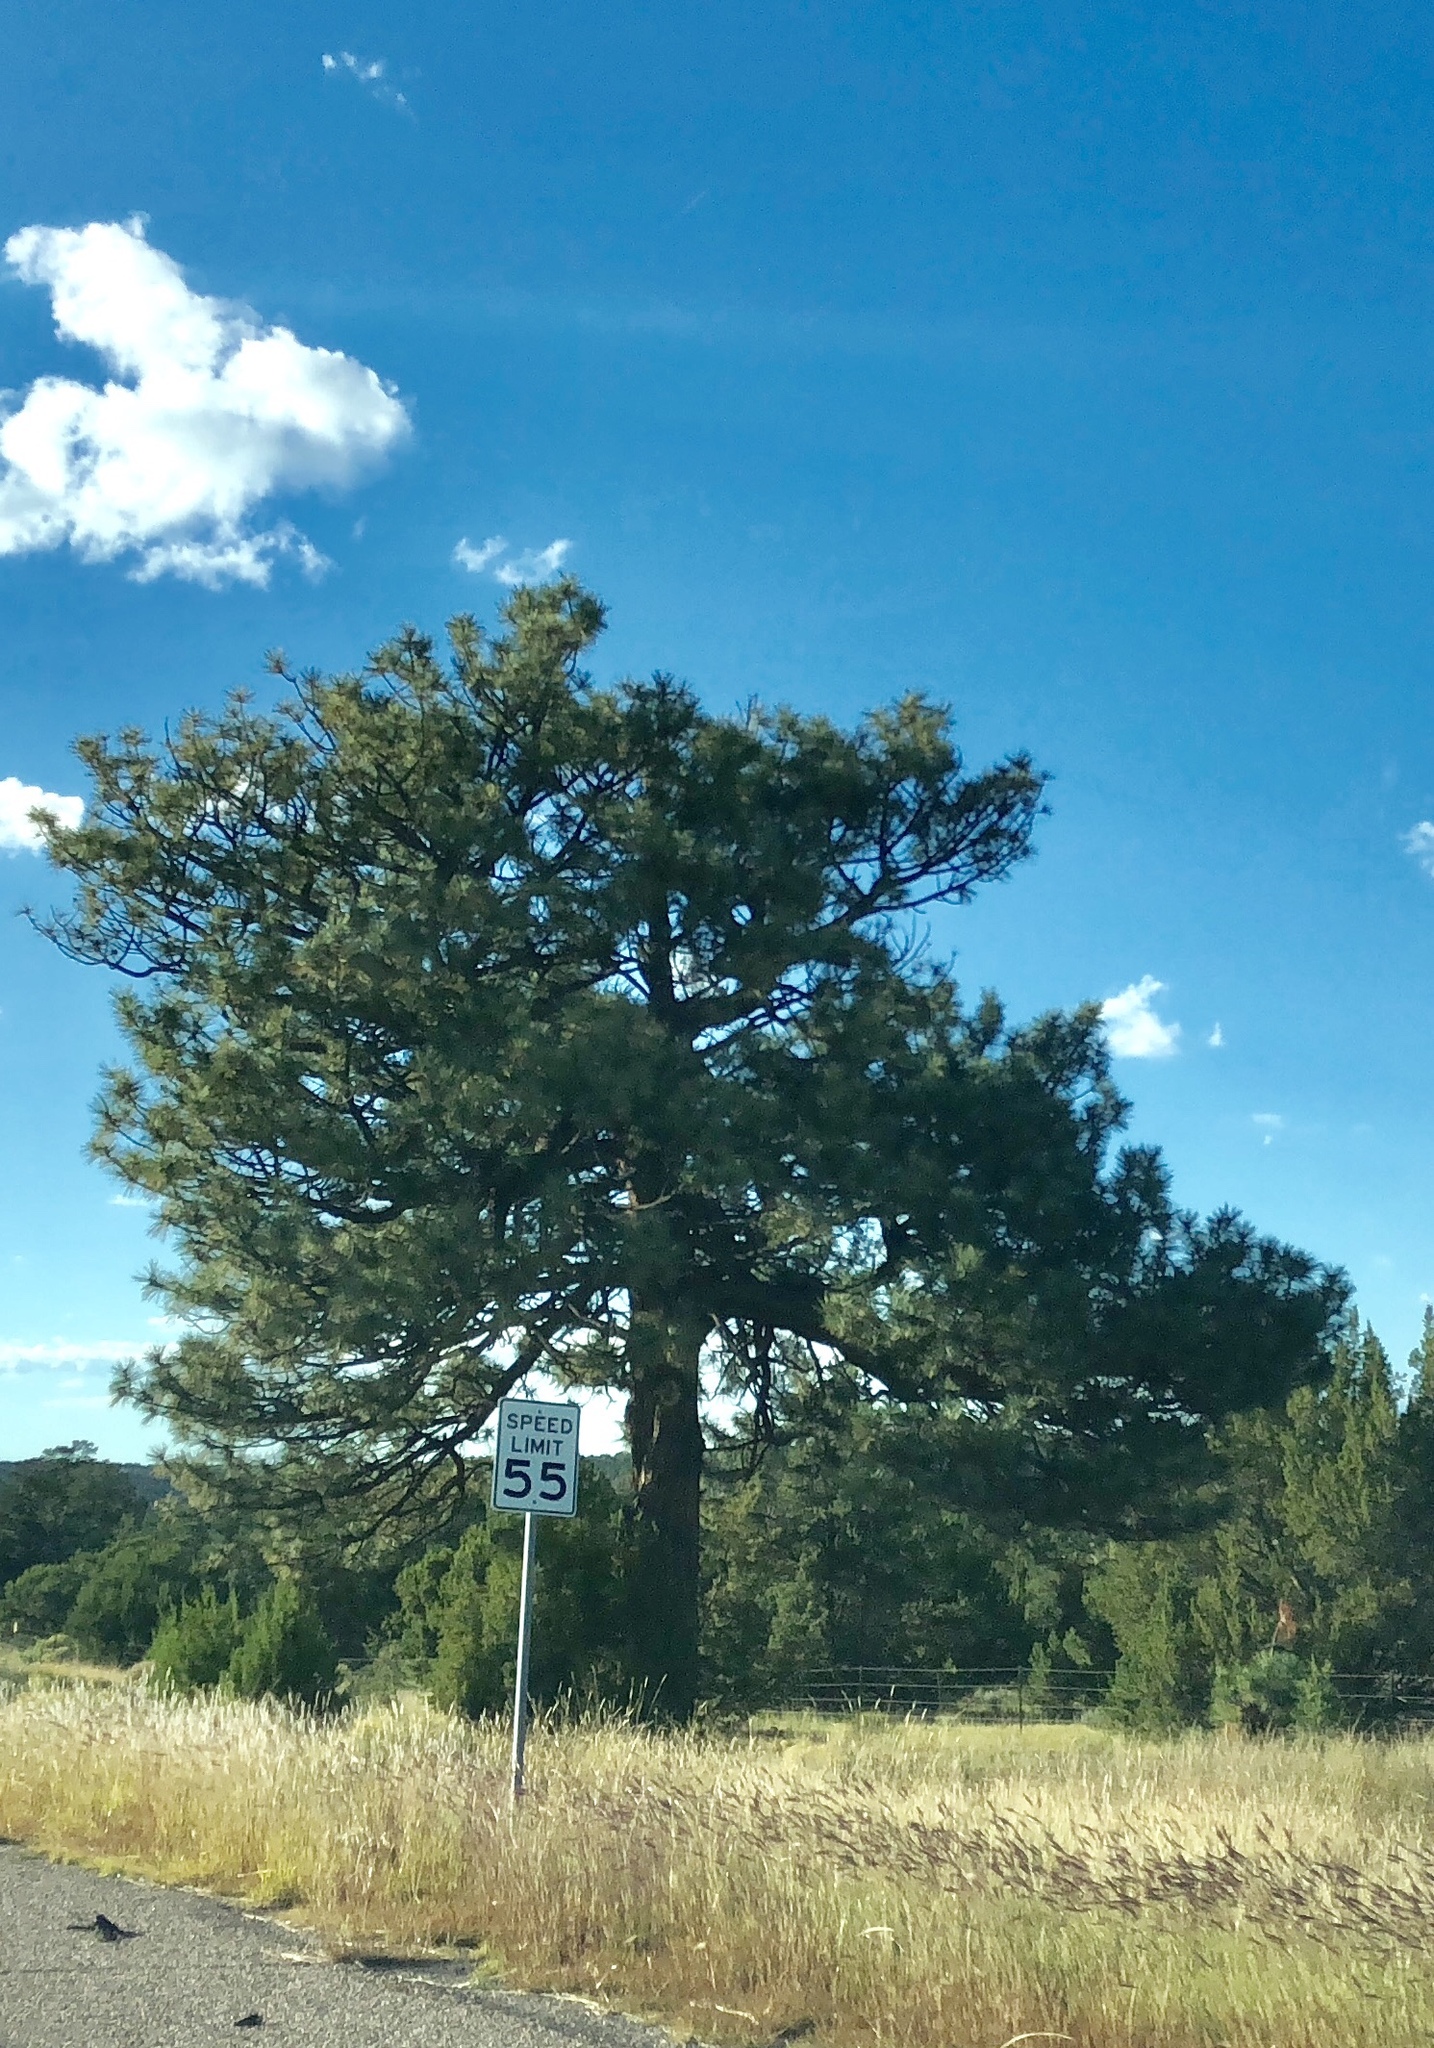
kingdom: Plantae
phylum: Tracheophyta
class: Pinopsida
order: Pinales
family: Pinaceae
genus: Pinus
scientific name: Pinus ponderosa
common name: Western yellow-pine
